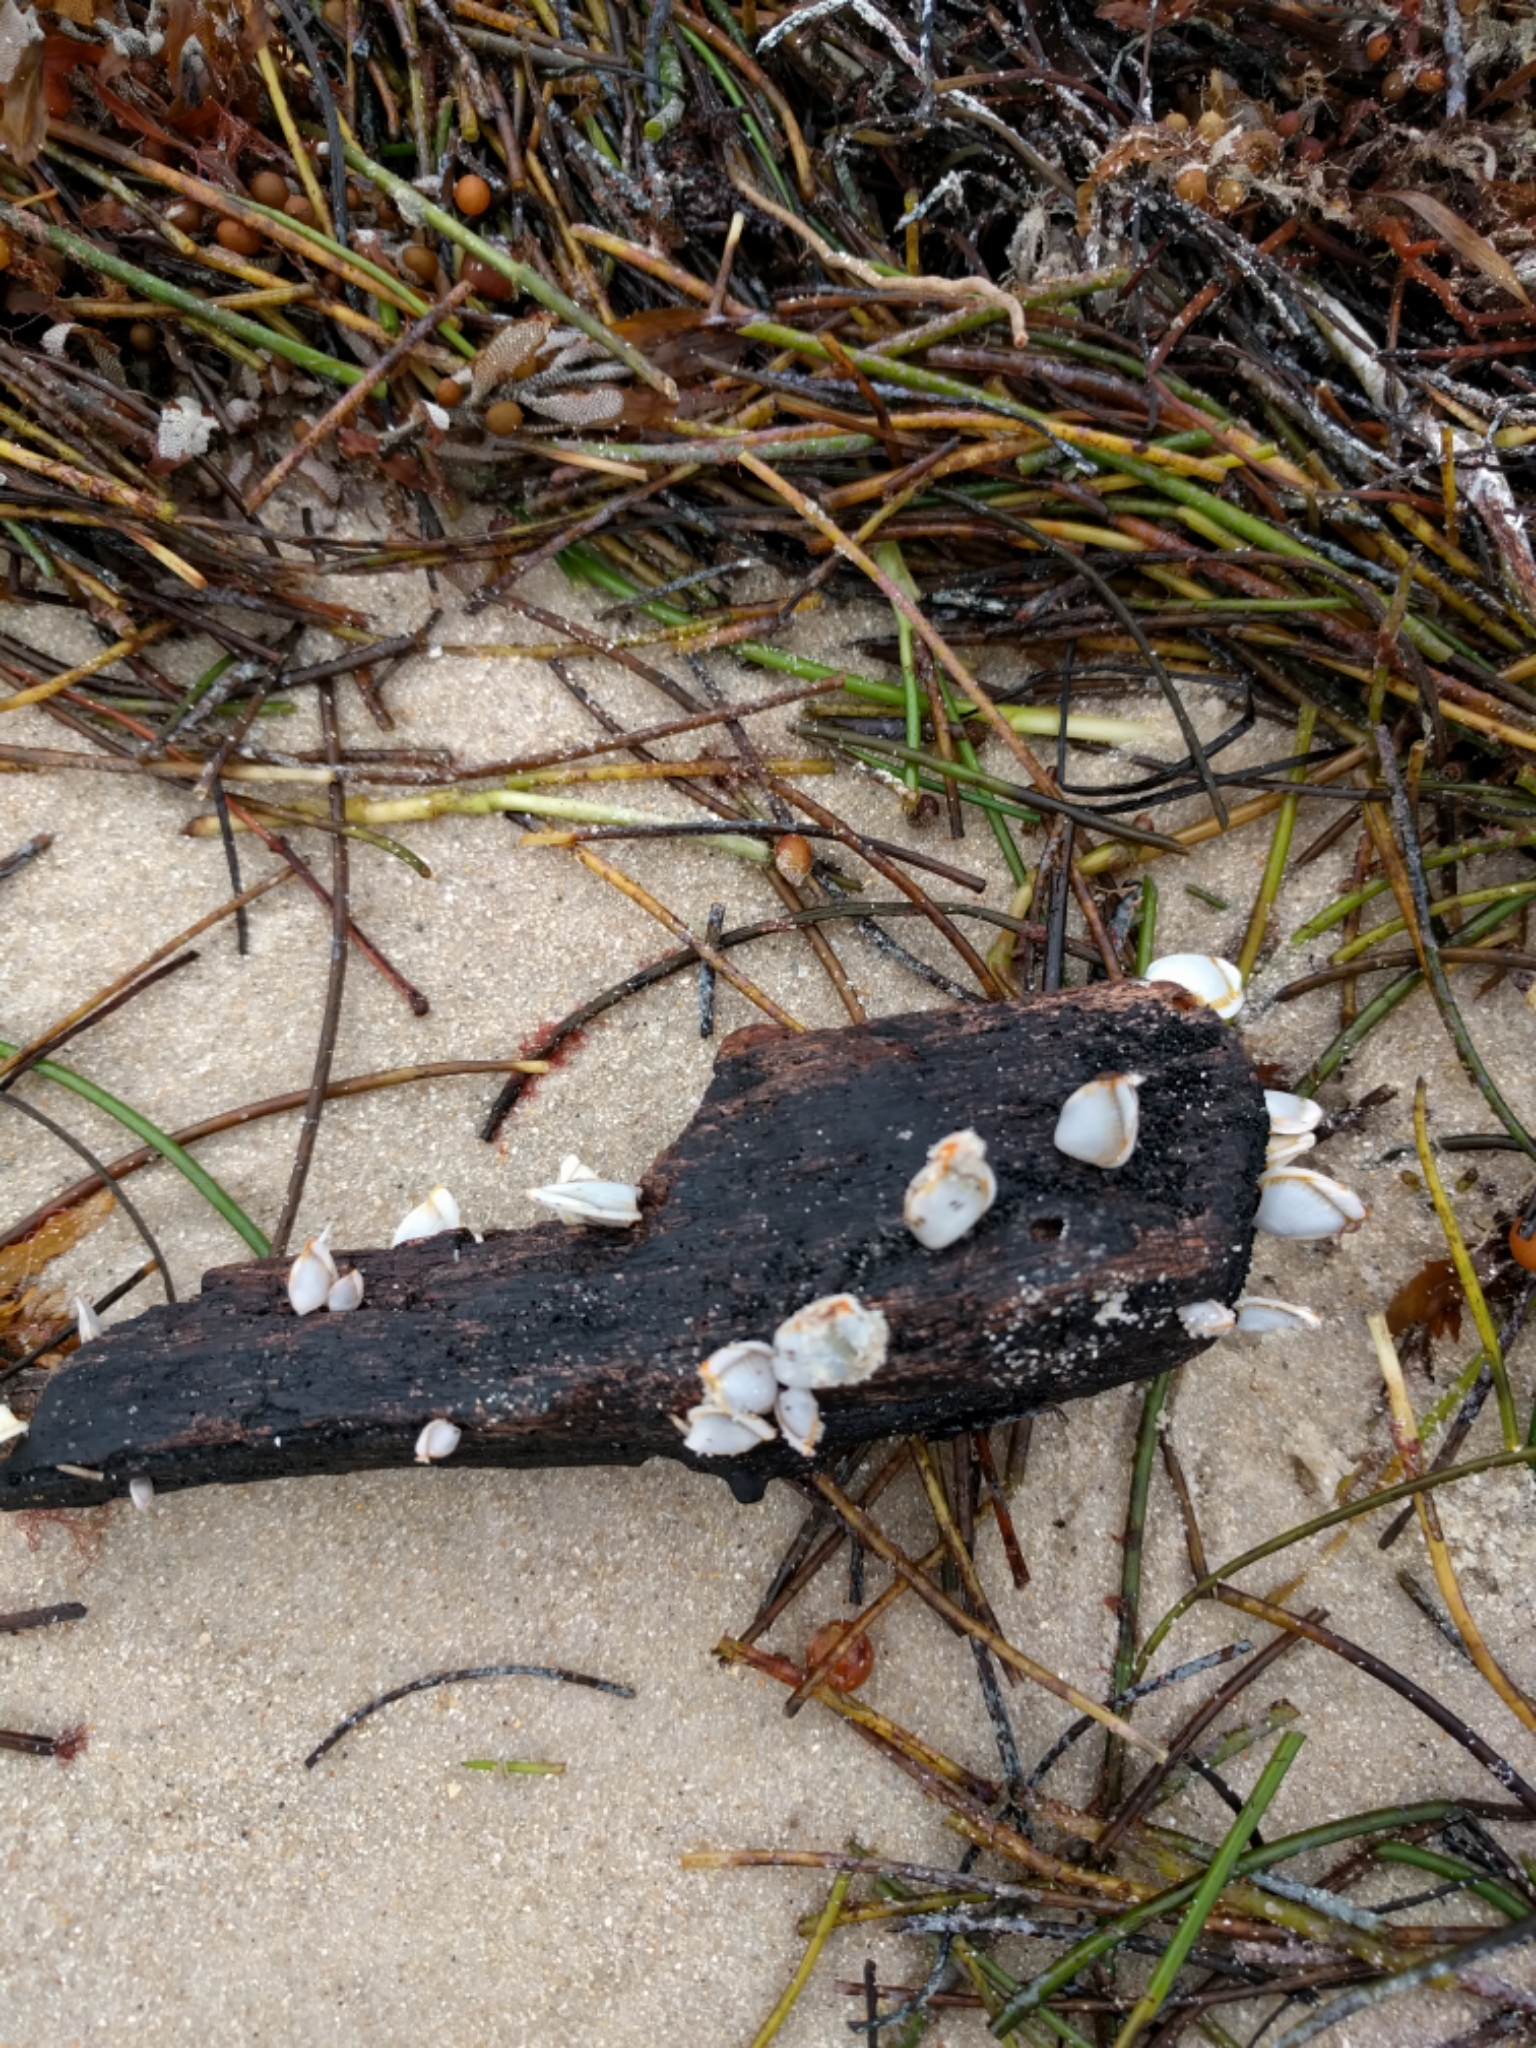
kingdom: Animalia
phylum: Arthropoda
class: Maxillopoda
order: Pedunculata
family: Lepadidae
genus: Lepas
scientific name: Lepas anatifera
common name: Common goose barnacle
